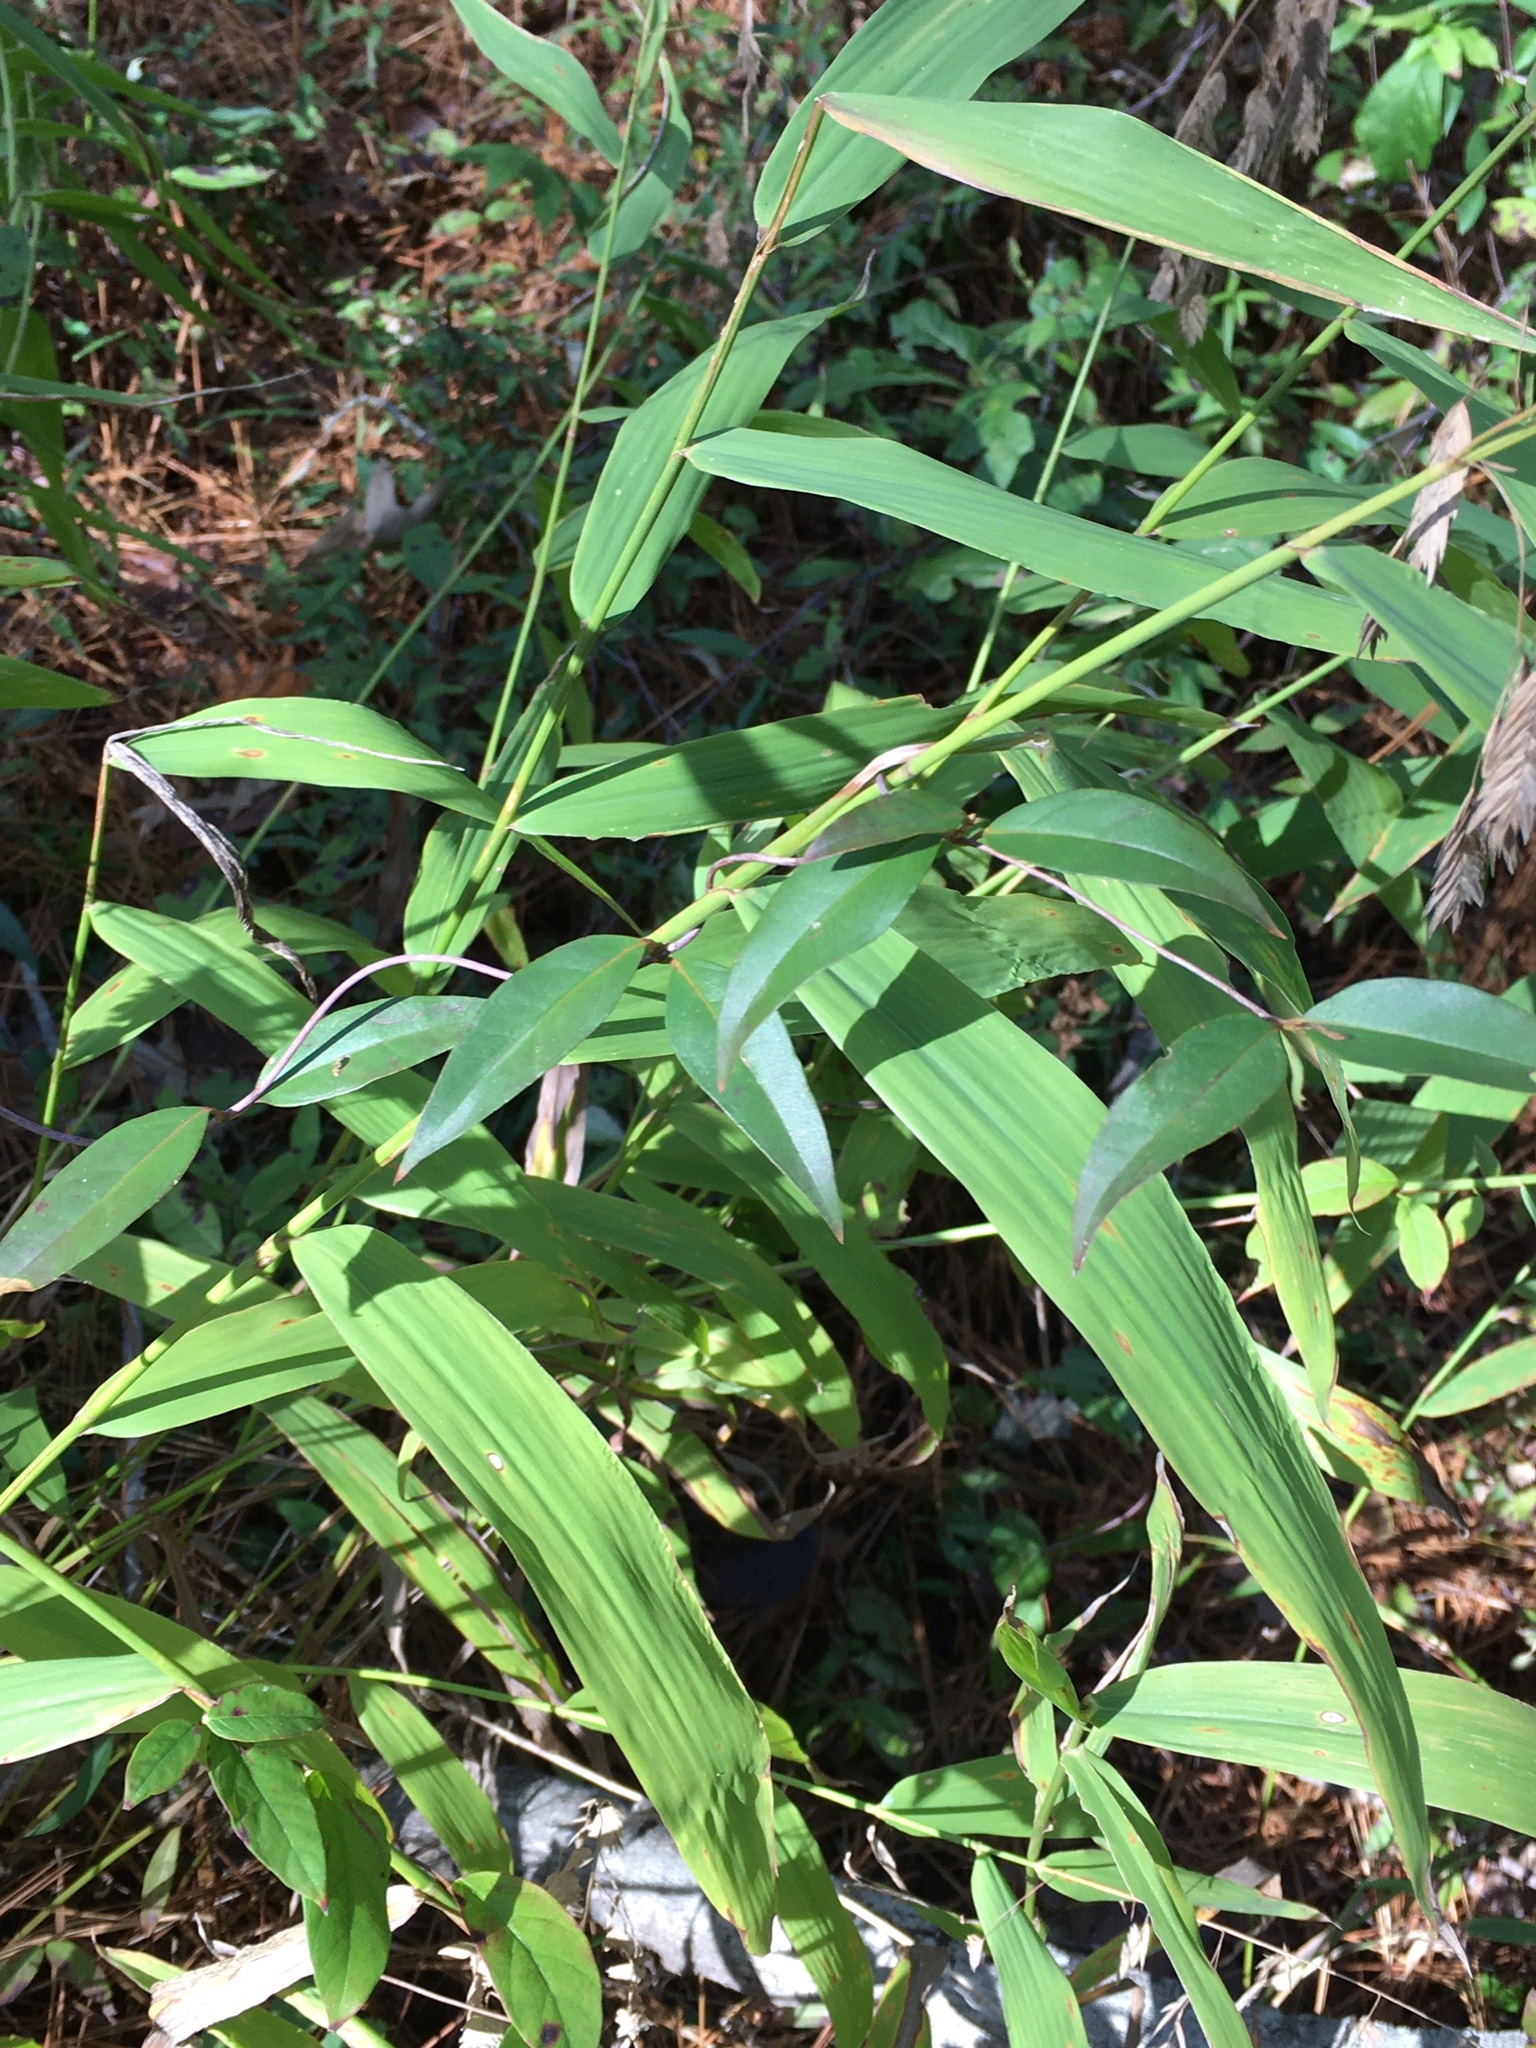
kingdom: Plantae
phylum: Tracheophyta
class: Liliopsida
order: Poales
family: Poaceae
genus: Chasmanthium
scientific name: Chasmanthium latifolium
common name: Broad-leaved chasmanthium
